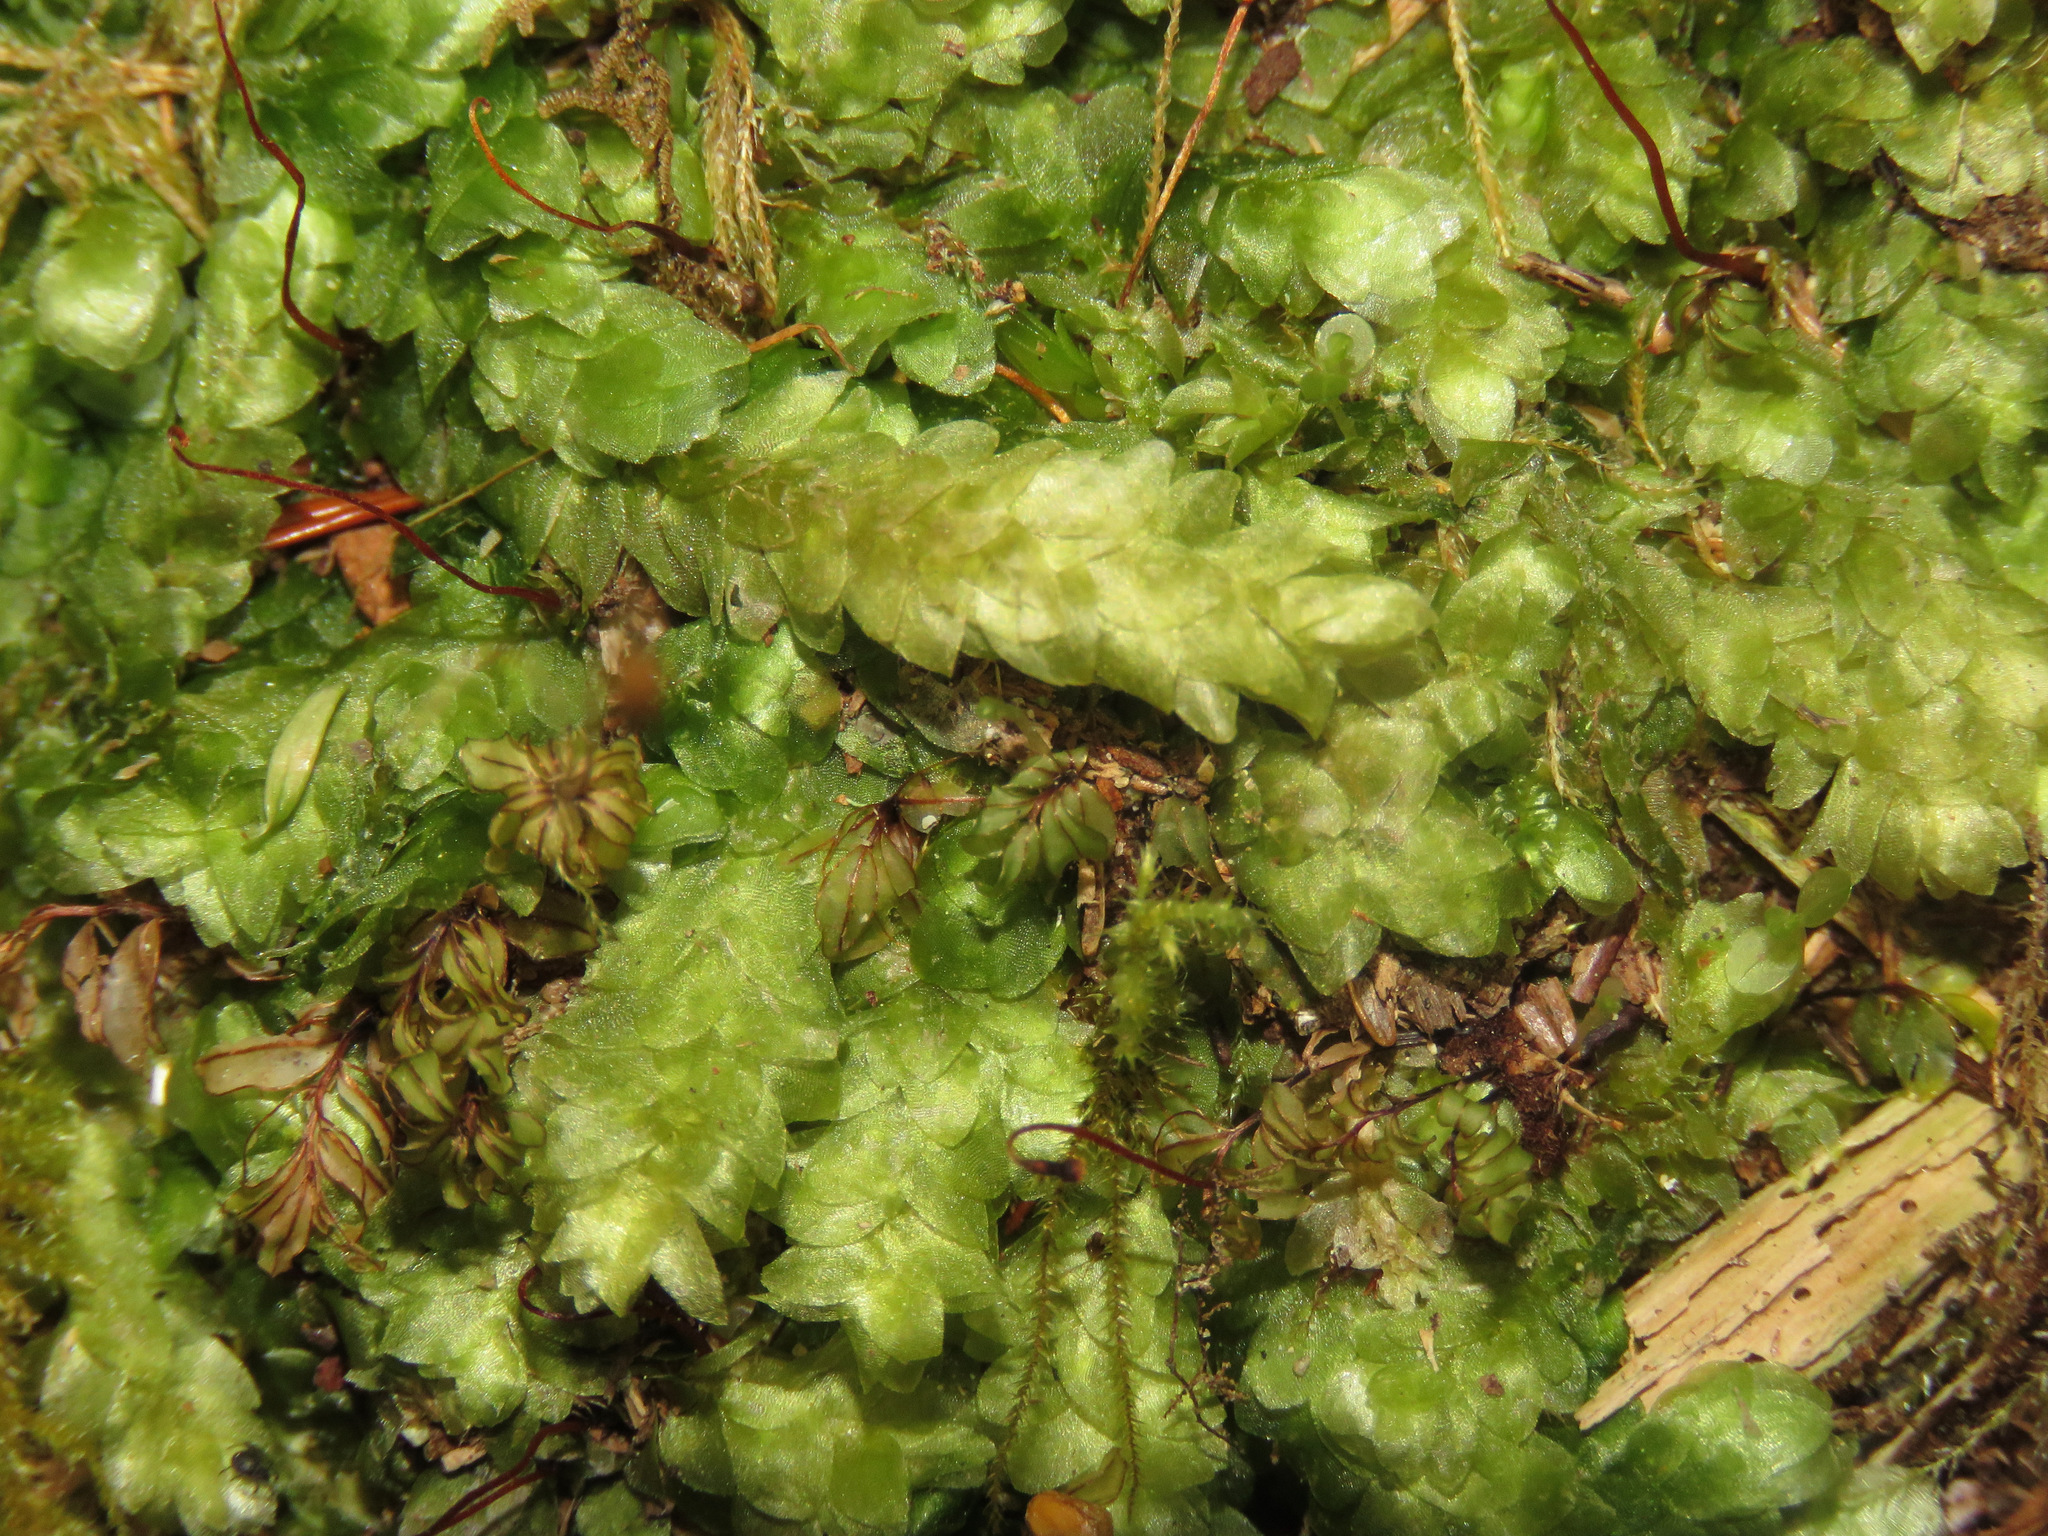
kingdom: Plantae
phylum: Bryophyta
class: Bryopsida
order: Hookeriales
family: Hookeriaceae
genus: Hookeria
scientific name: Hookeria lucens
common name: Shining hookeria
